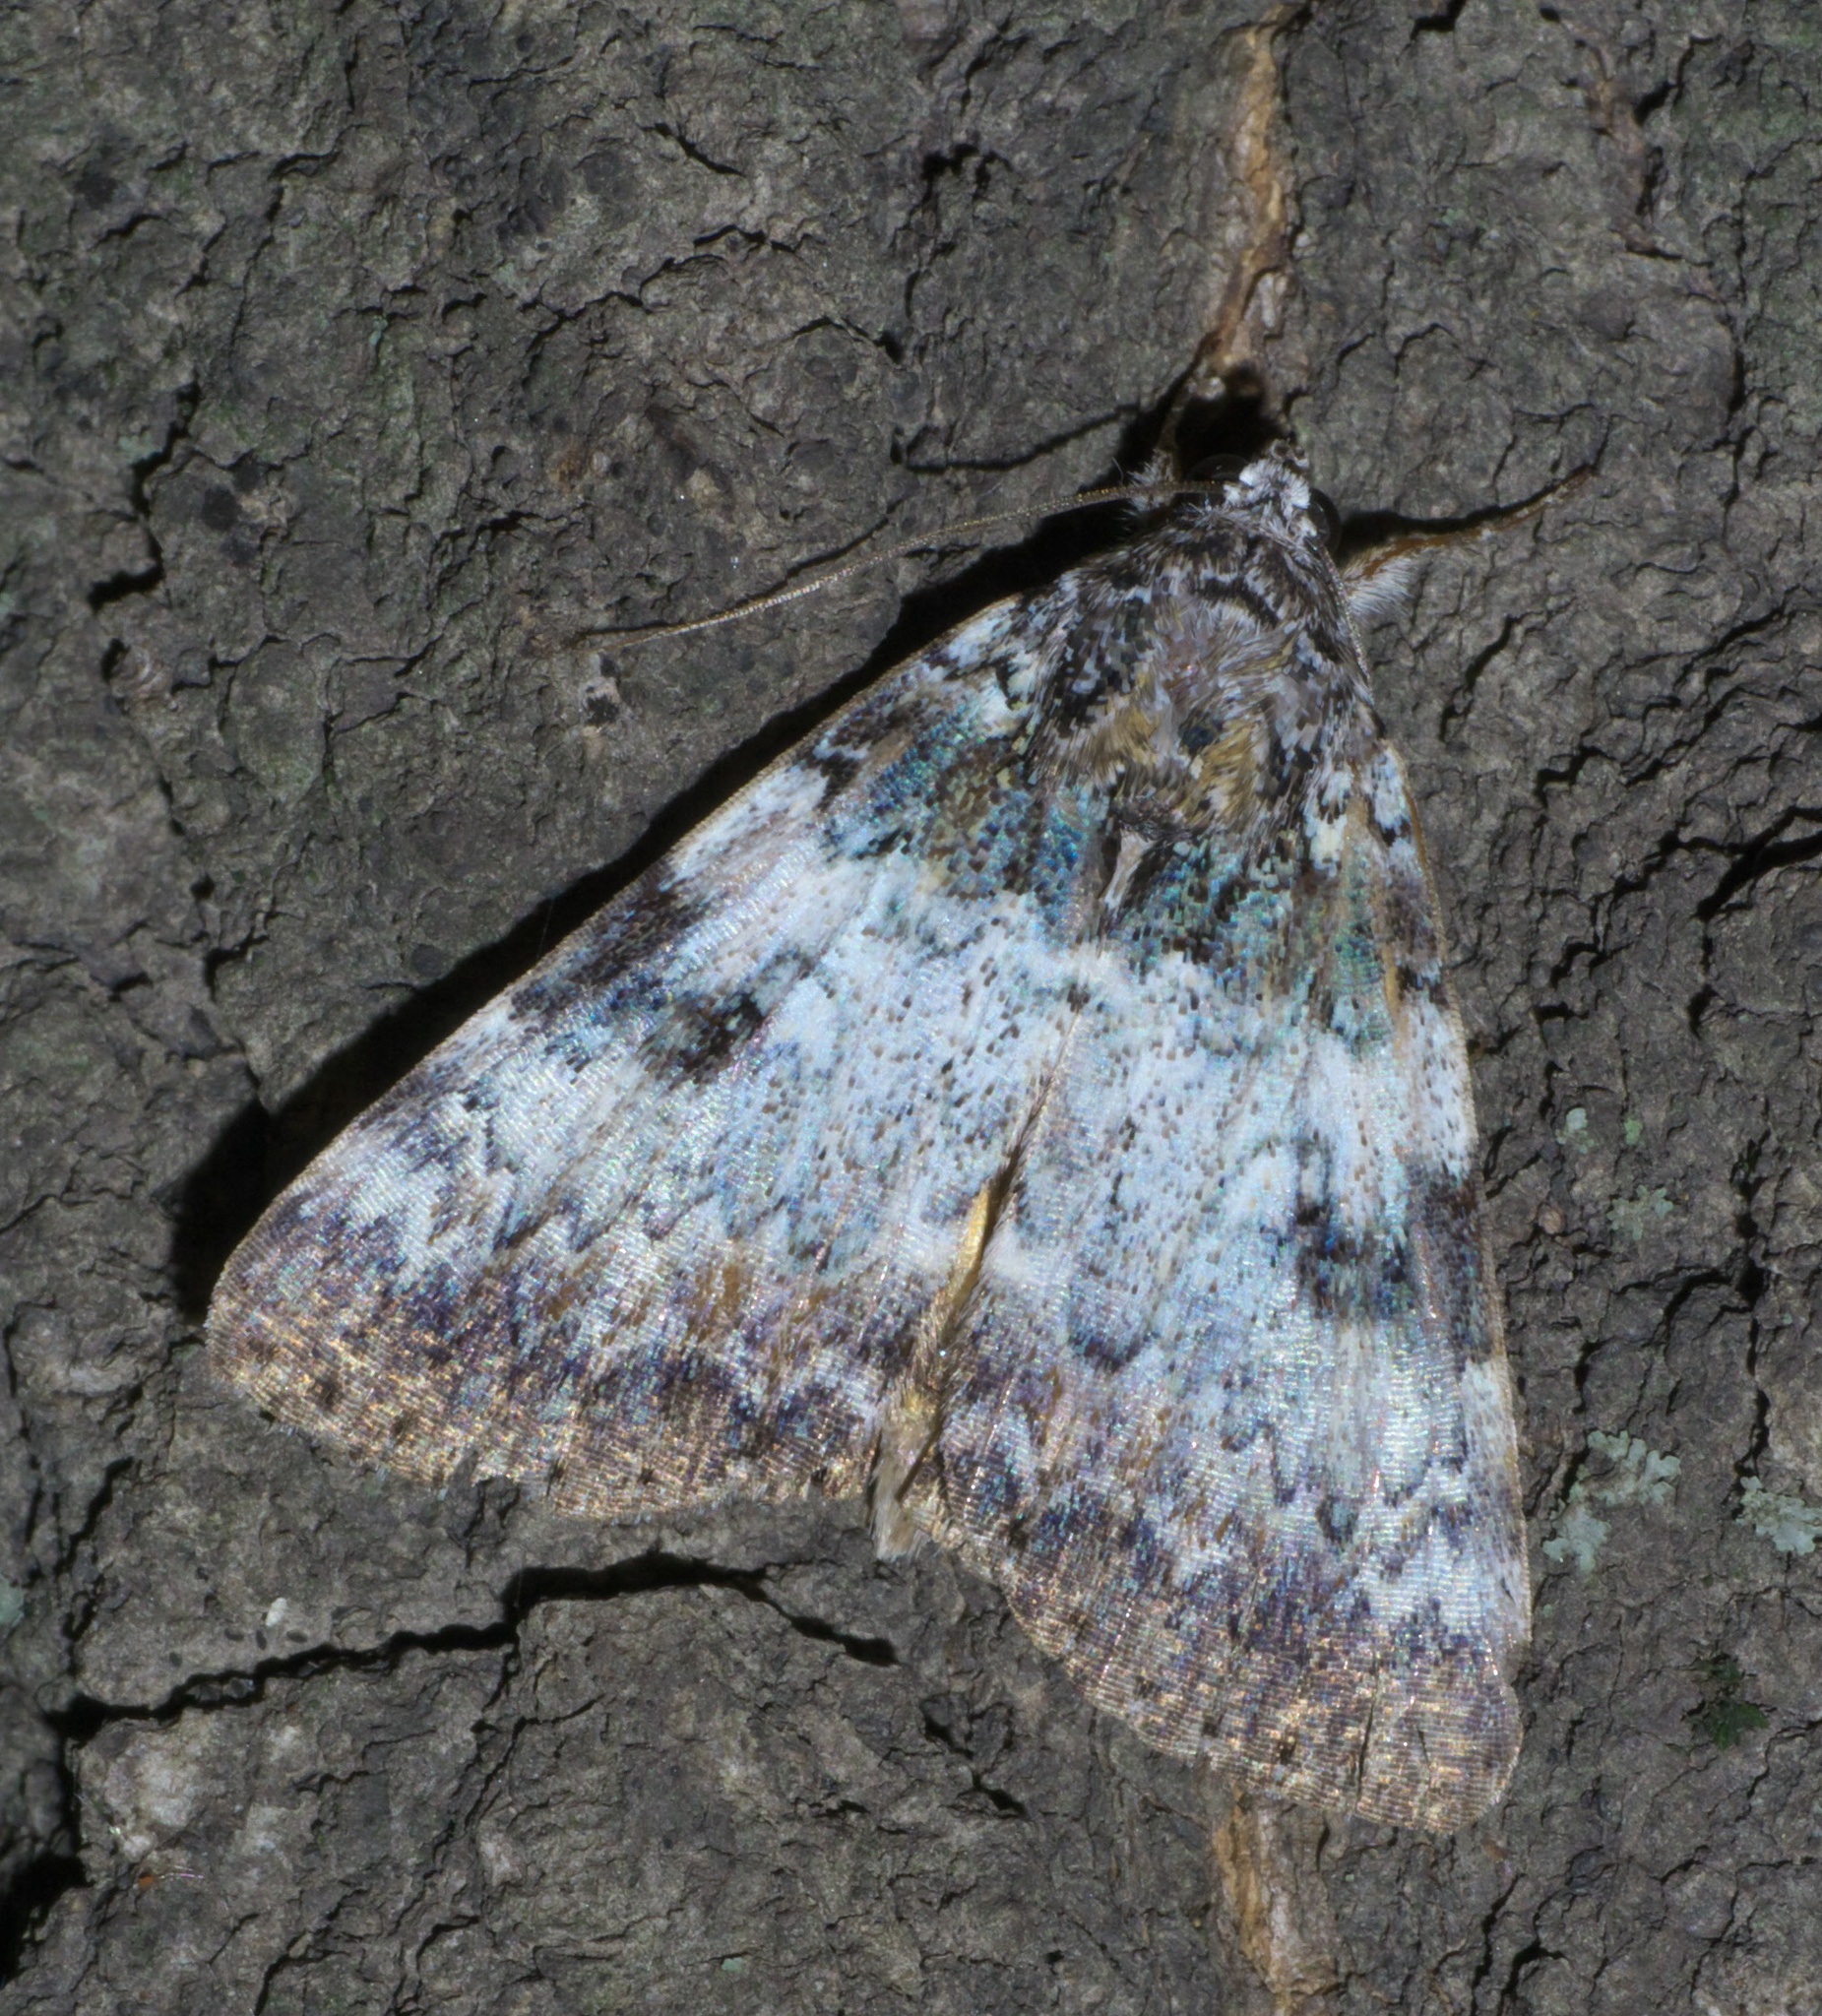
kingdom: Animalia
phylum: Arthropoda
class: Insecta
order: Lepidoptera
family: Erebidae
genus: Catocala
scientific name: Catocala connubialis
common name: Connubial underwing
